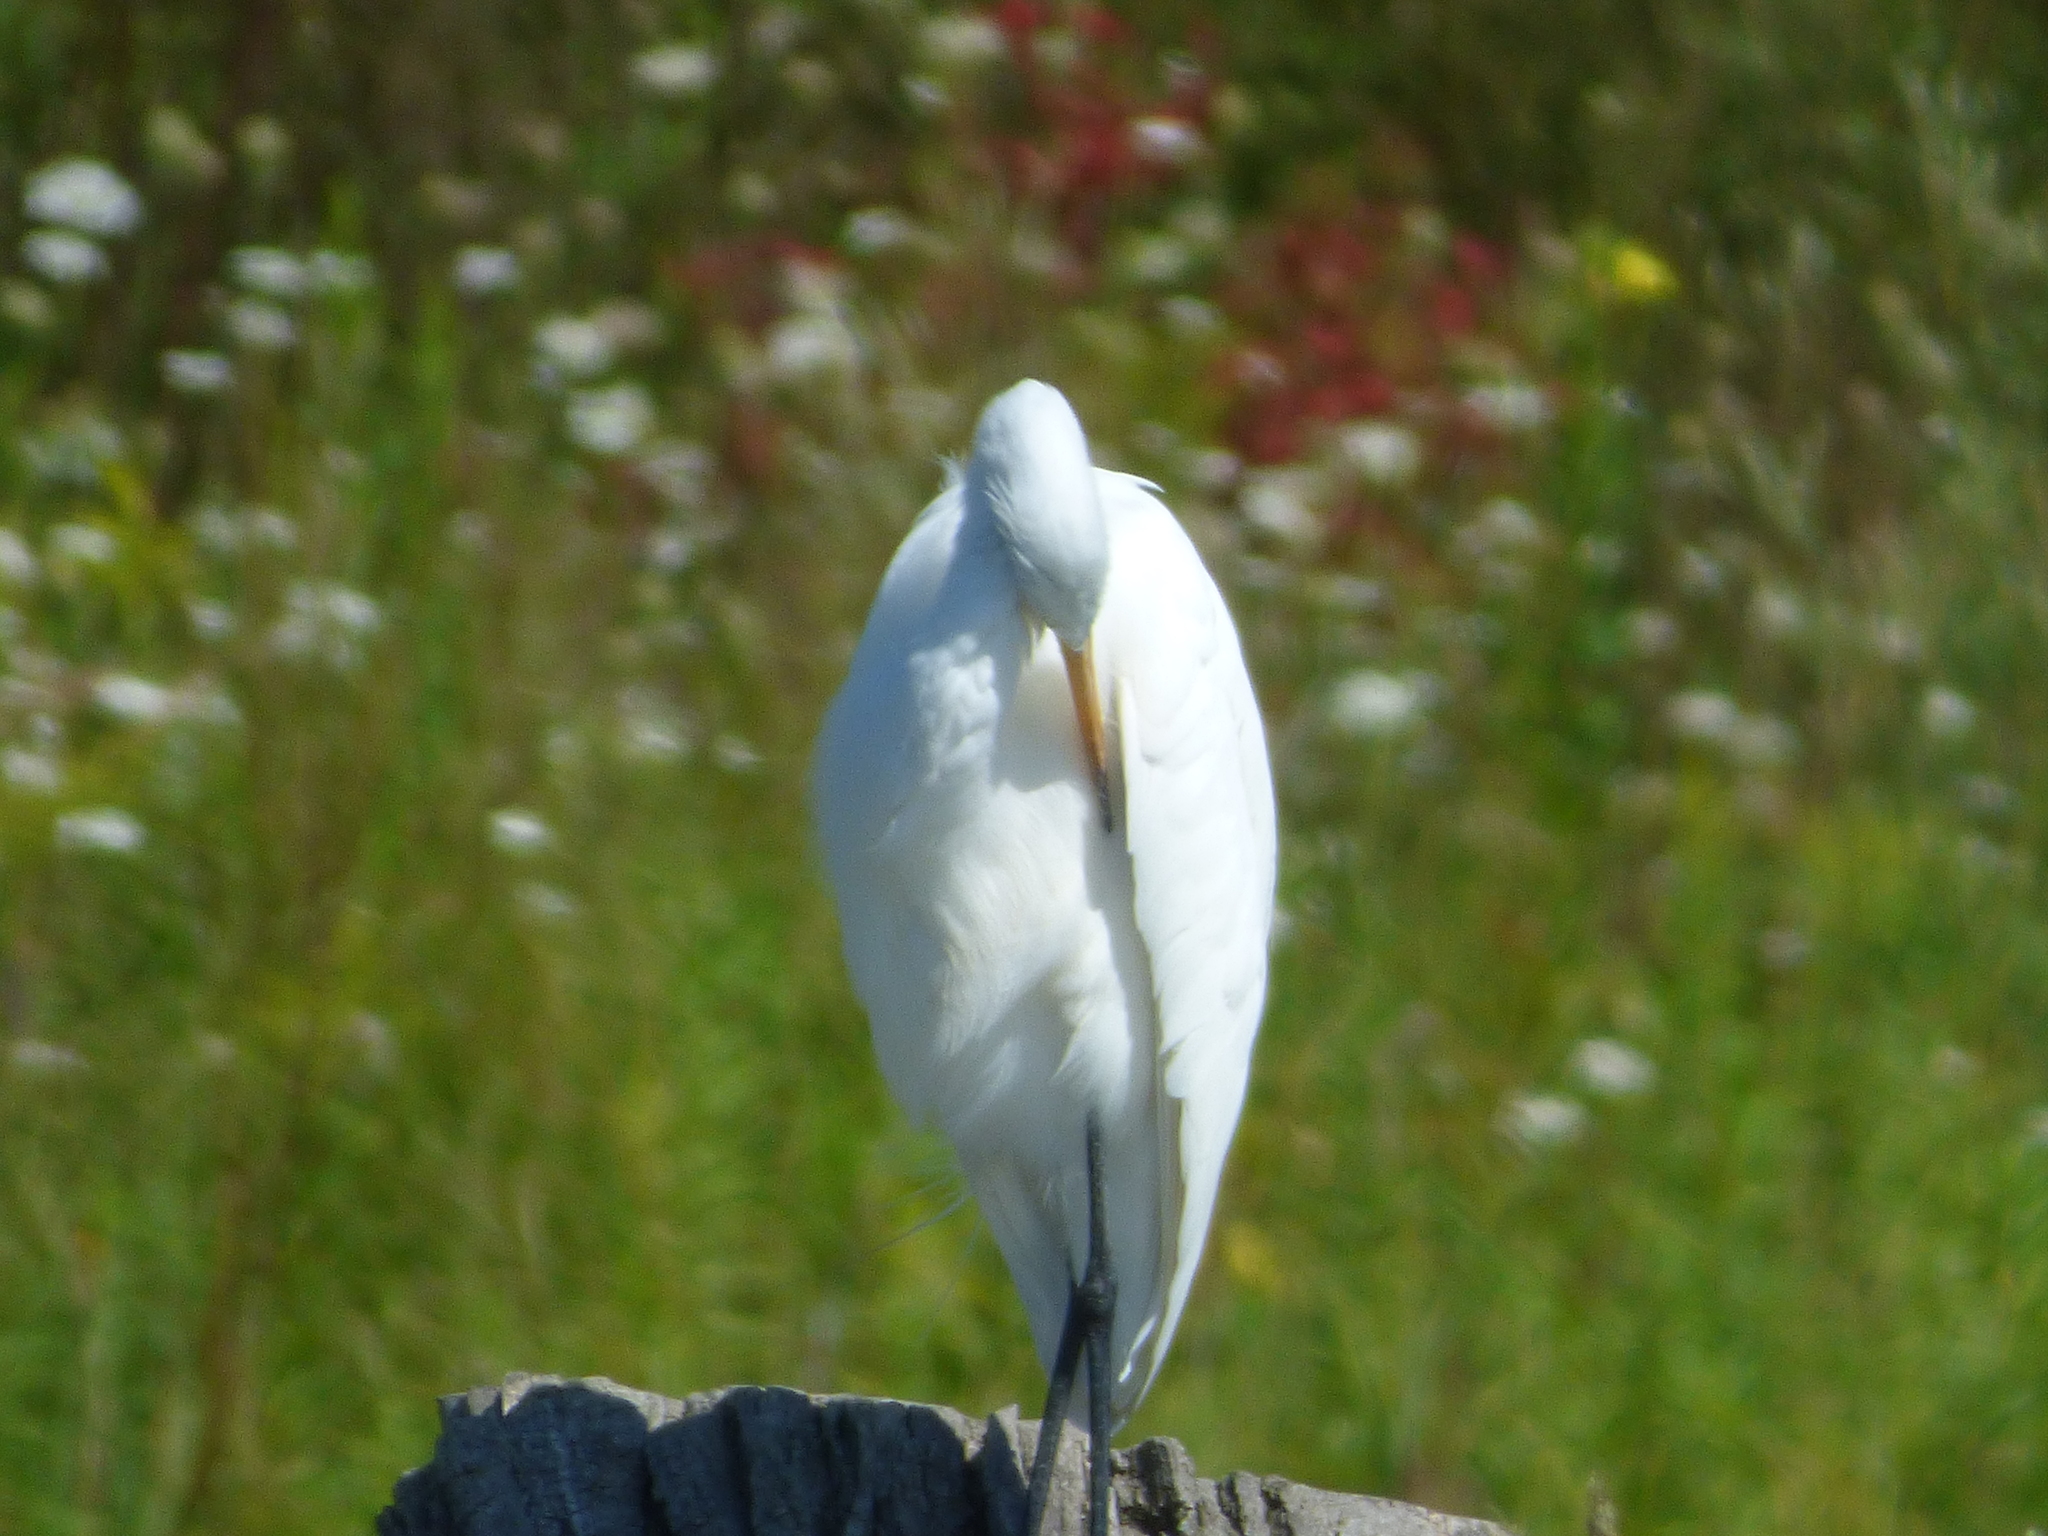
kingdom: Animalia
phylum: Chordata
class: Aves
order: Pelecaniformes
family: Ardeidae
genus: Ardea
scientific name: Ardea alba
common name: Great egret
